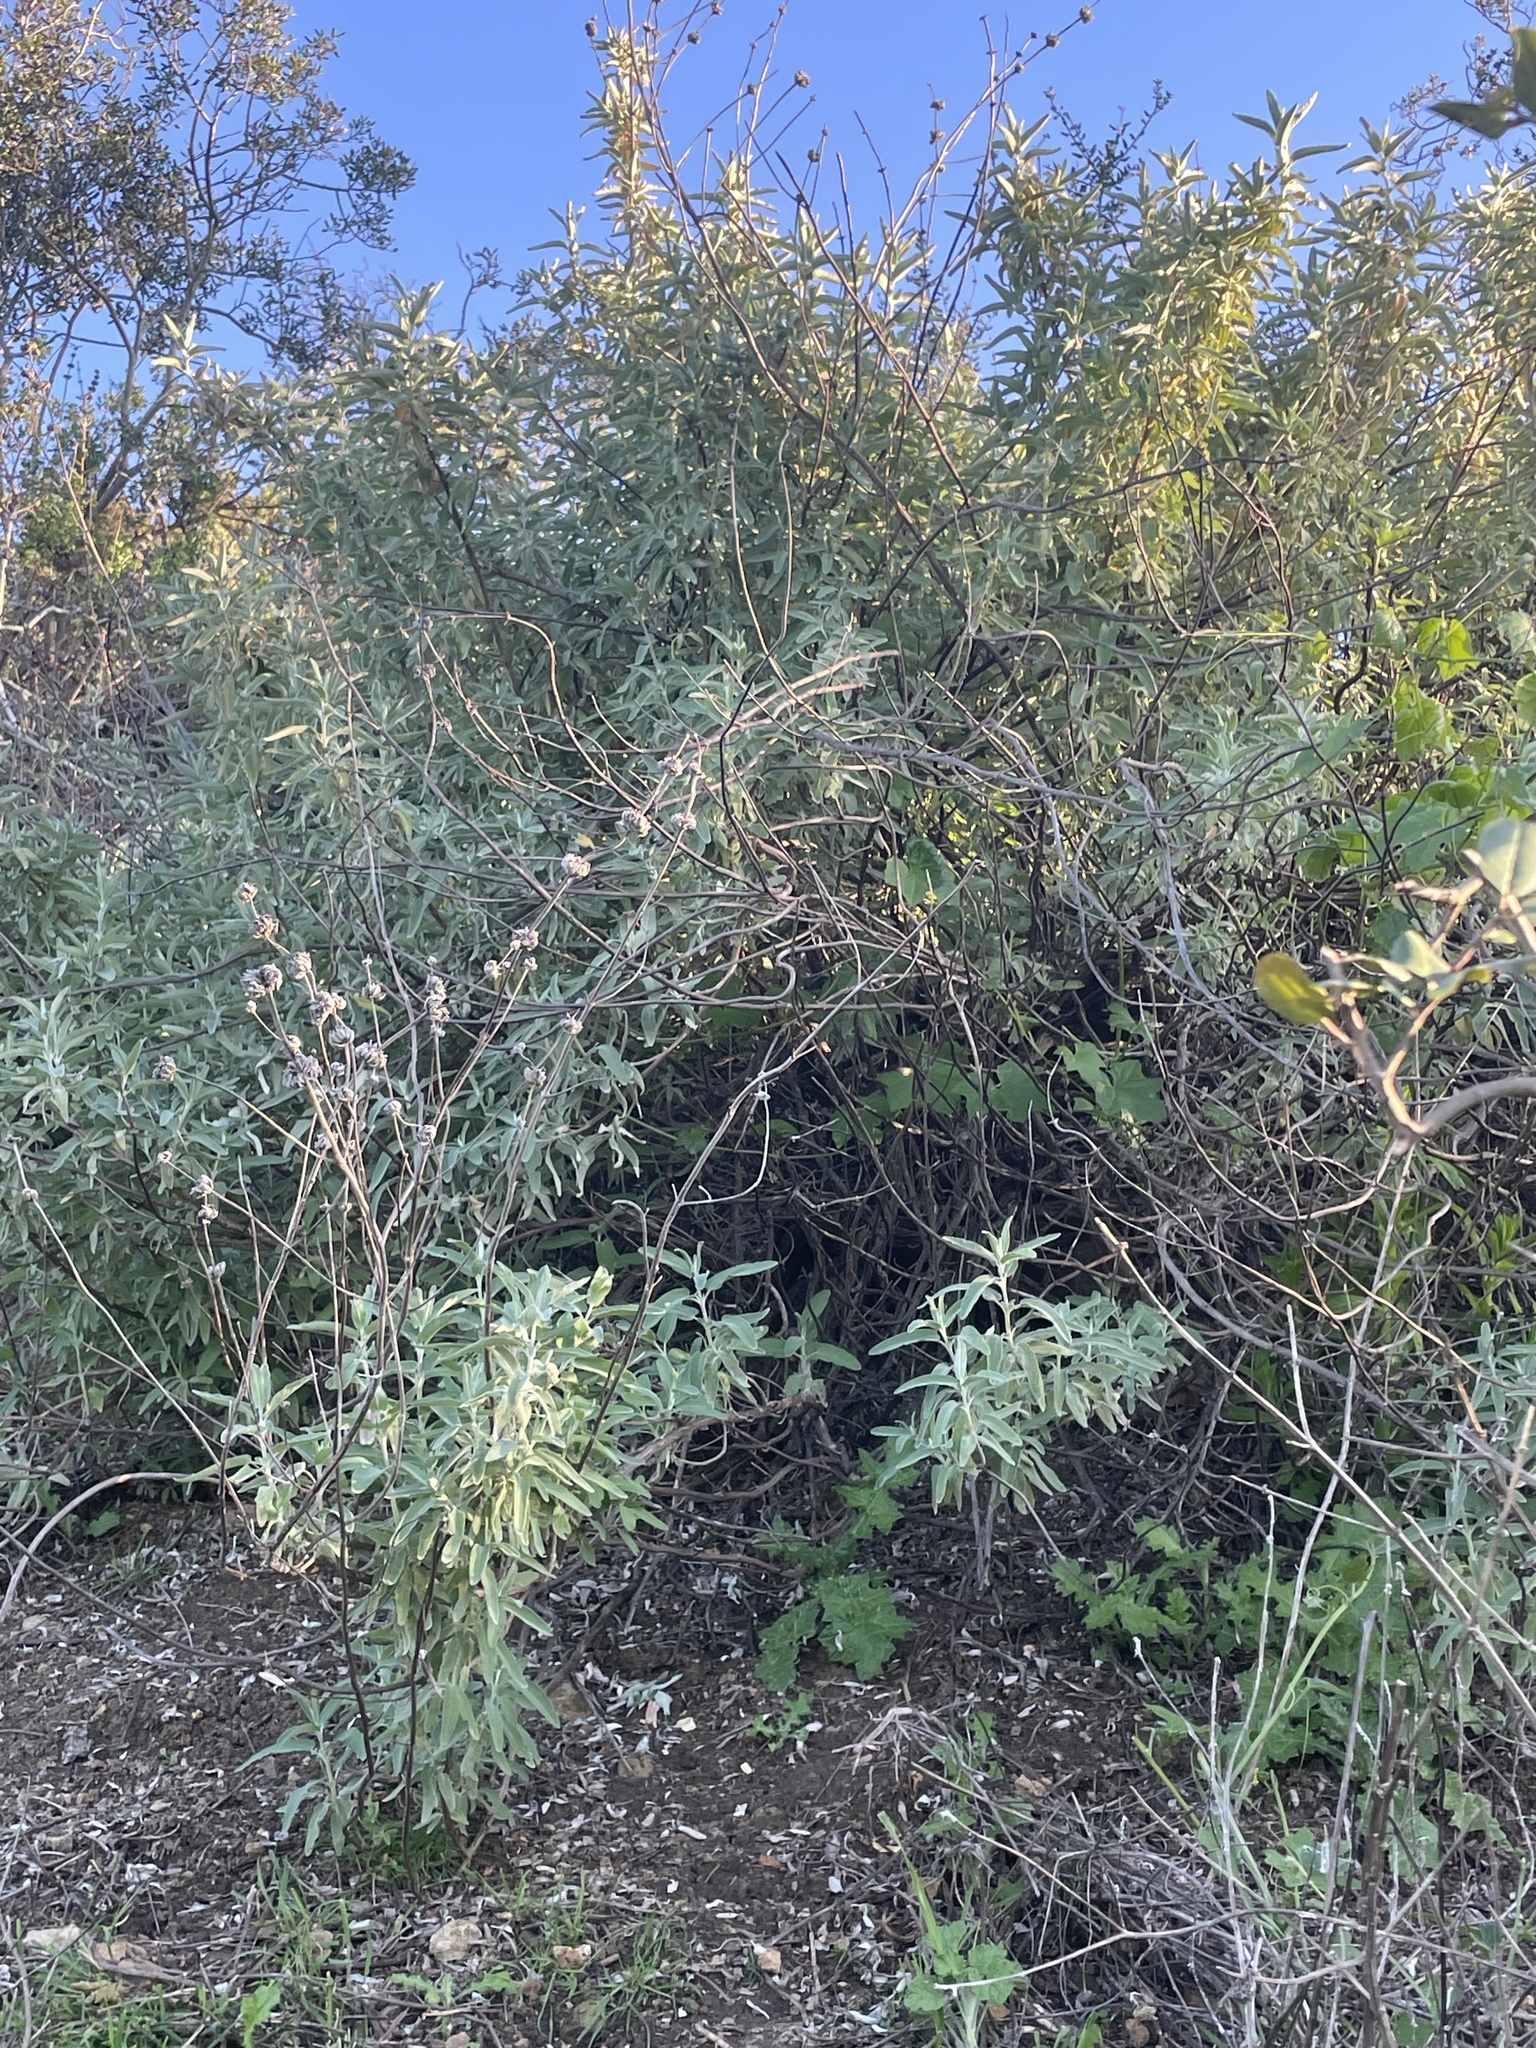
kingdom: Plantae
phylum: Tracheophyta
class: Magnoliopsida
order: Lamiales
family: Lamiaceae
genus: Salvia
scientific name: Salvia leucophylla
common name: Purple sage
